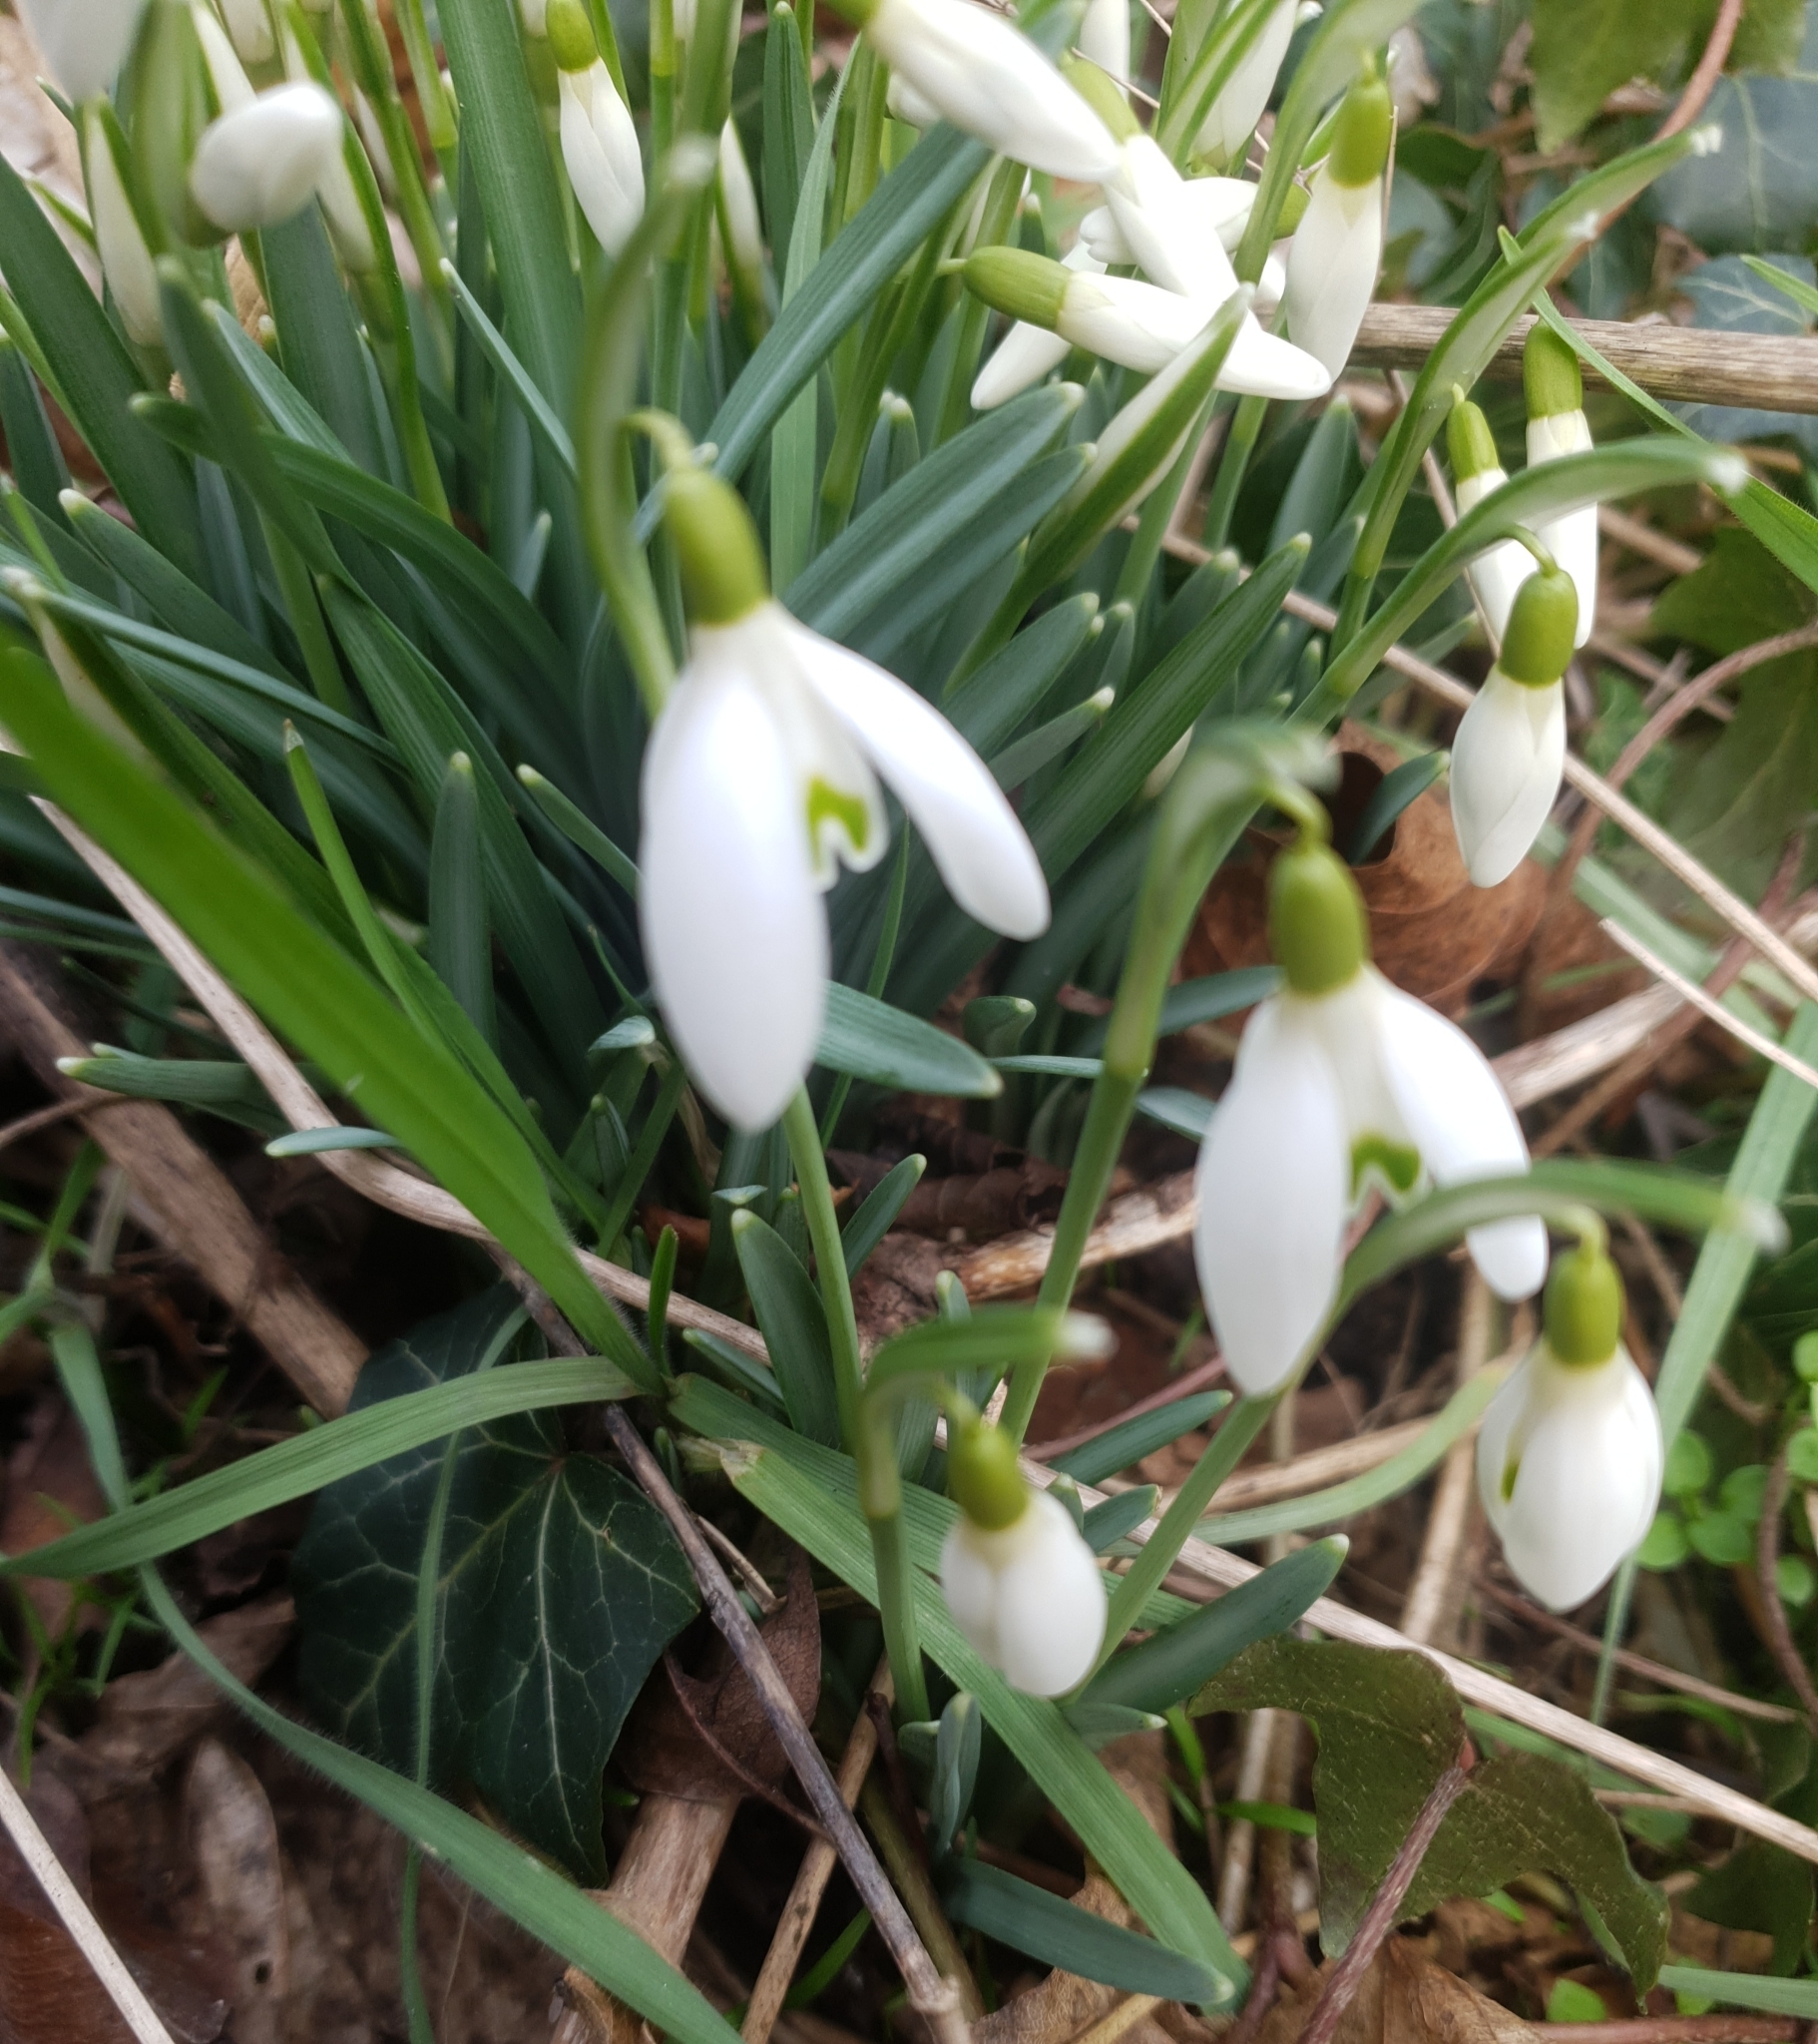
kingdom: Plantae
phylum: Tracheophyta
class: Liliopsida
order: Asparagales
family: Amaryllidaceae
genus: Galanthus
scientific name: Galanthus nivalis
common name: Snowdrop
